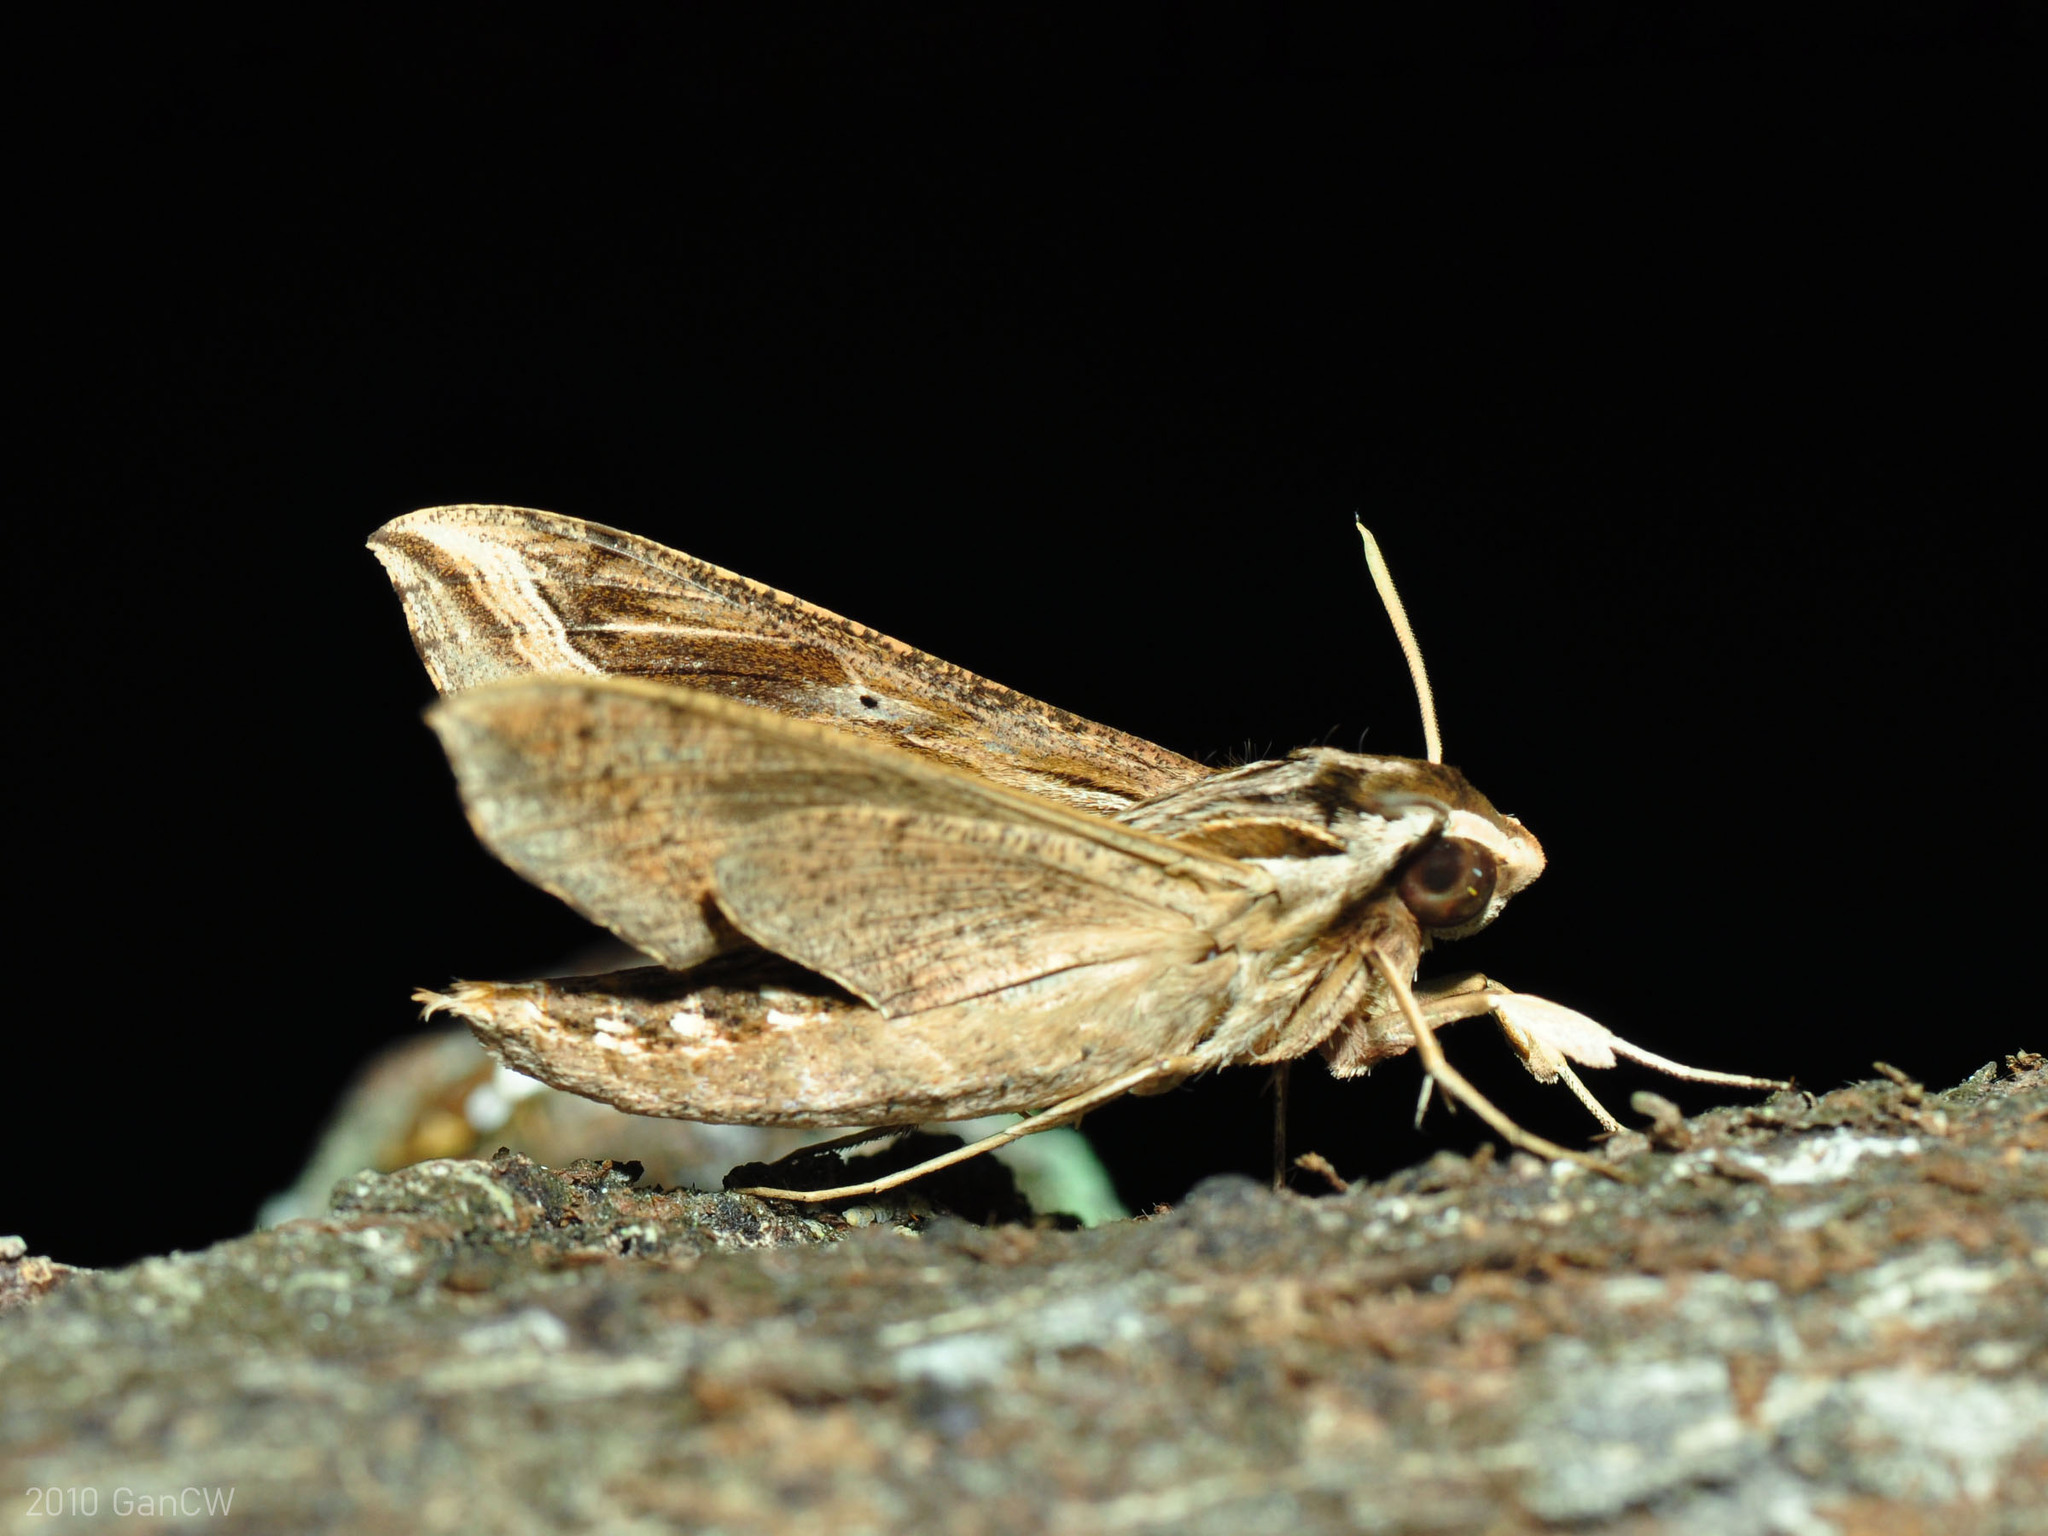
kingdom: Animalia
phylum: Arthropoda
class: Insecta
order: Lepidoptera
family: Sphingidae
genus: Hippotion
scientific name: Hippotion velox
